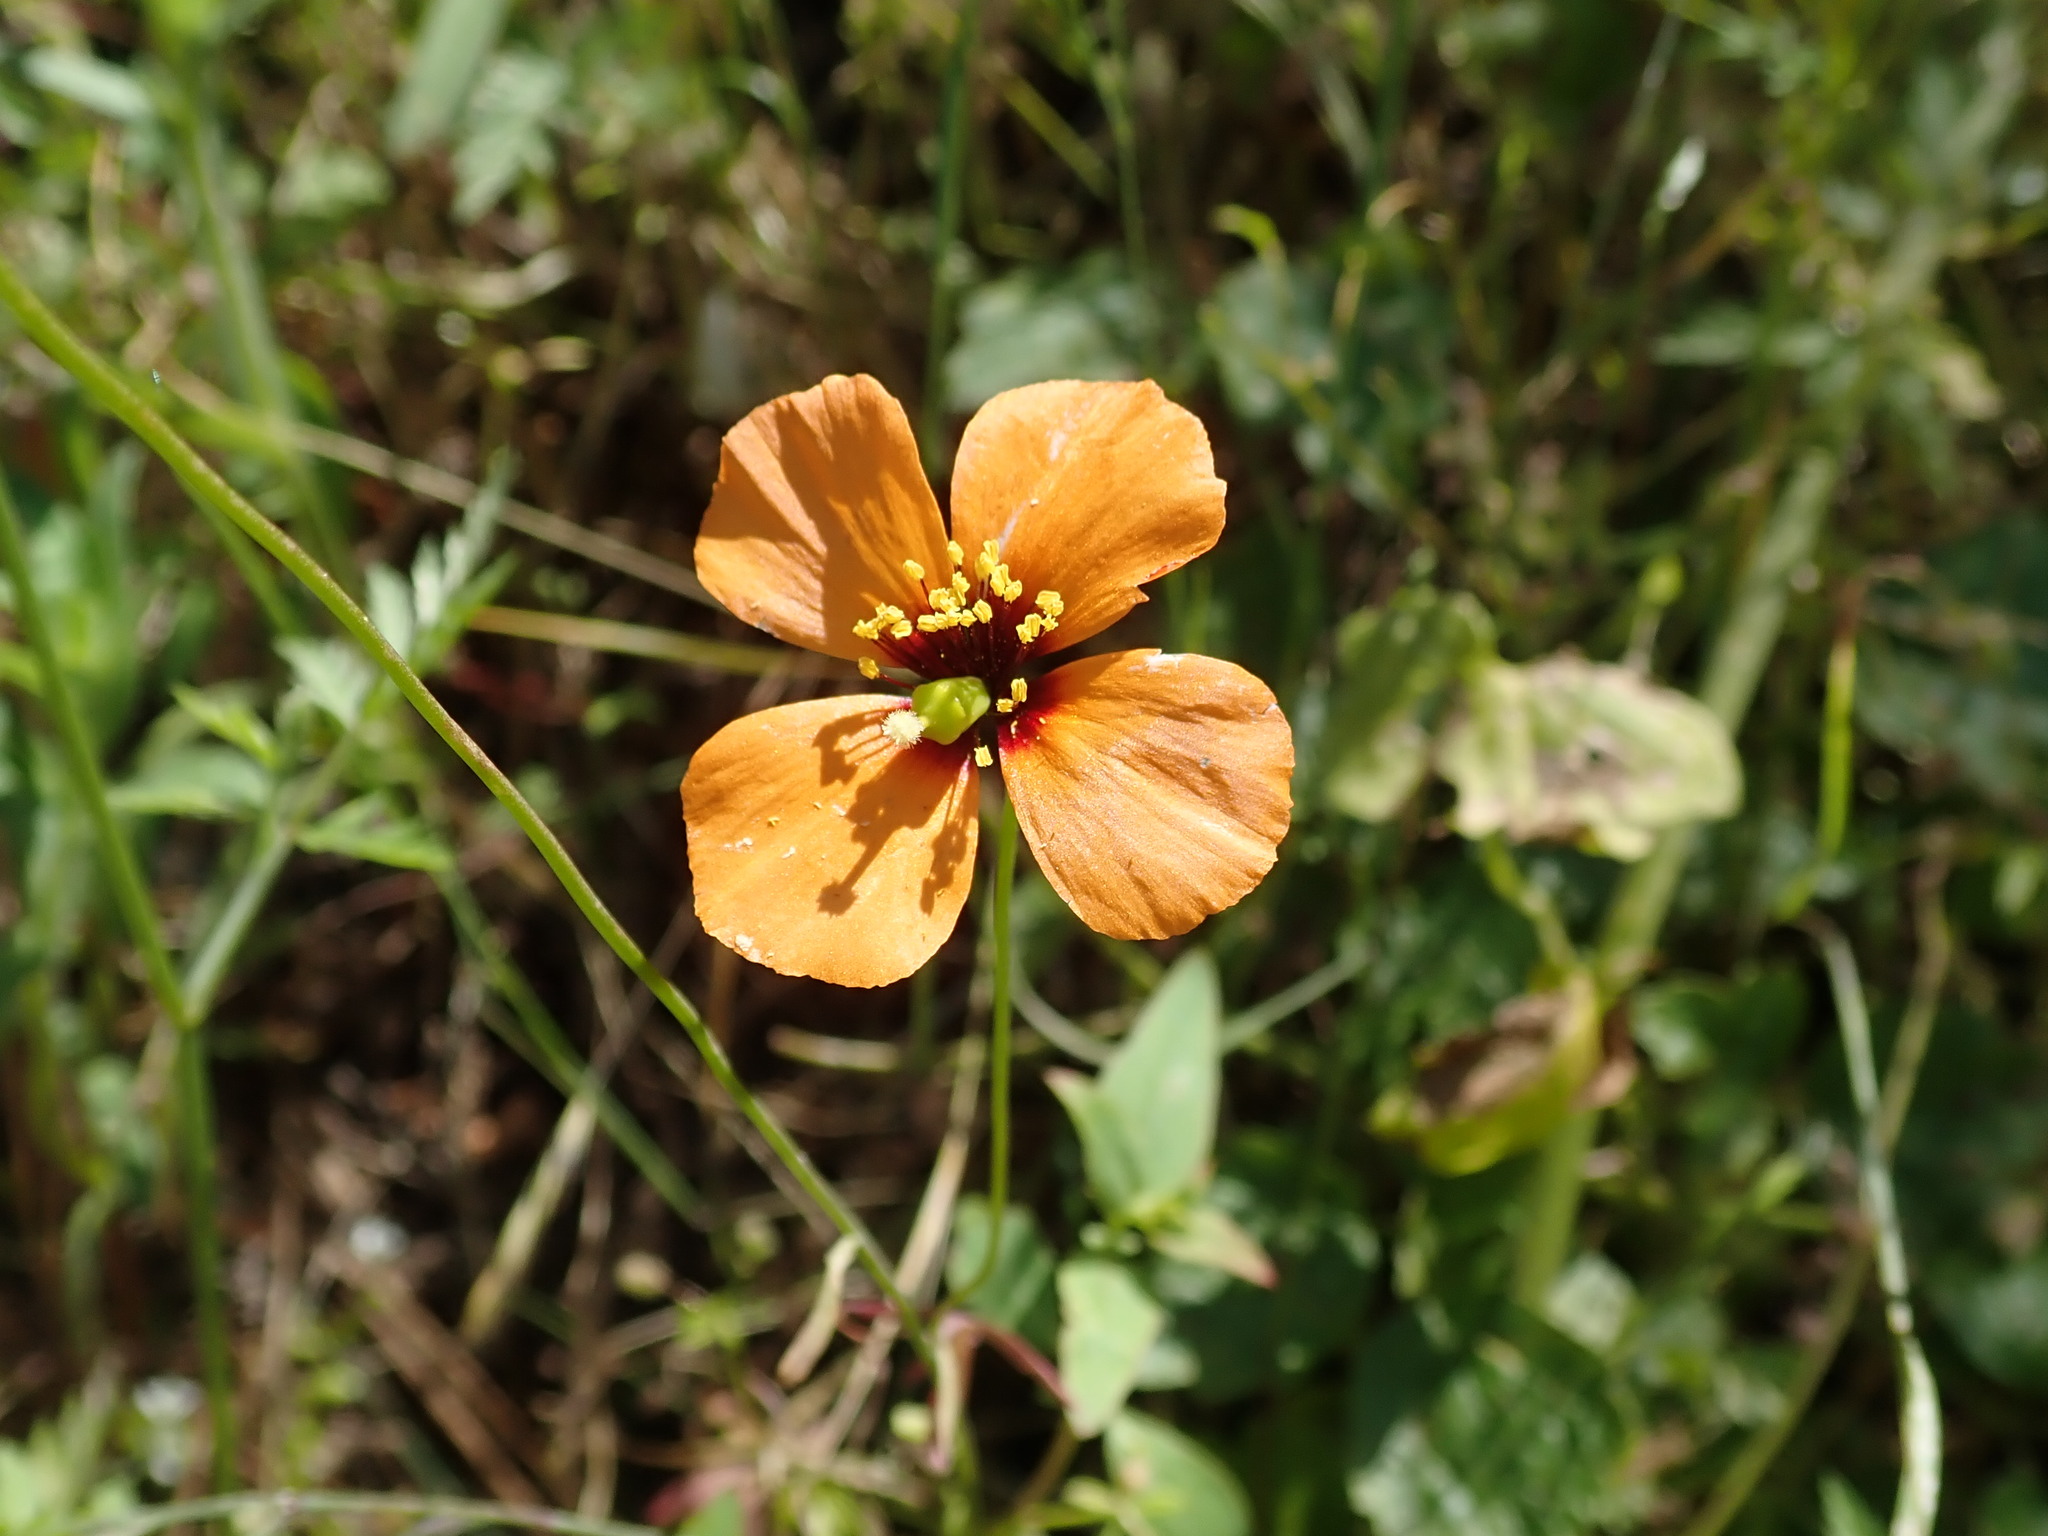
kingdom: Plantae
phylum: Tracheophyta
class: Magnoliopsida
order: Ranunculales
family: Papaveraceae
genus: Stylomecon
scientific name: Stylomecon heterophylla
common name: Flaming-poppy
